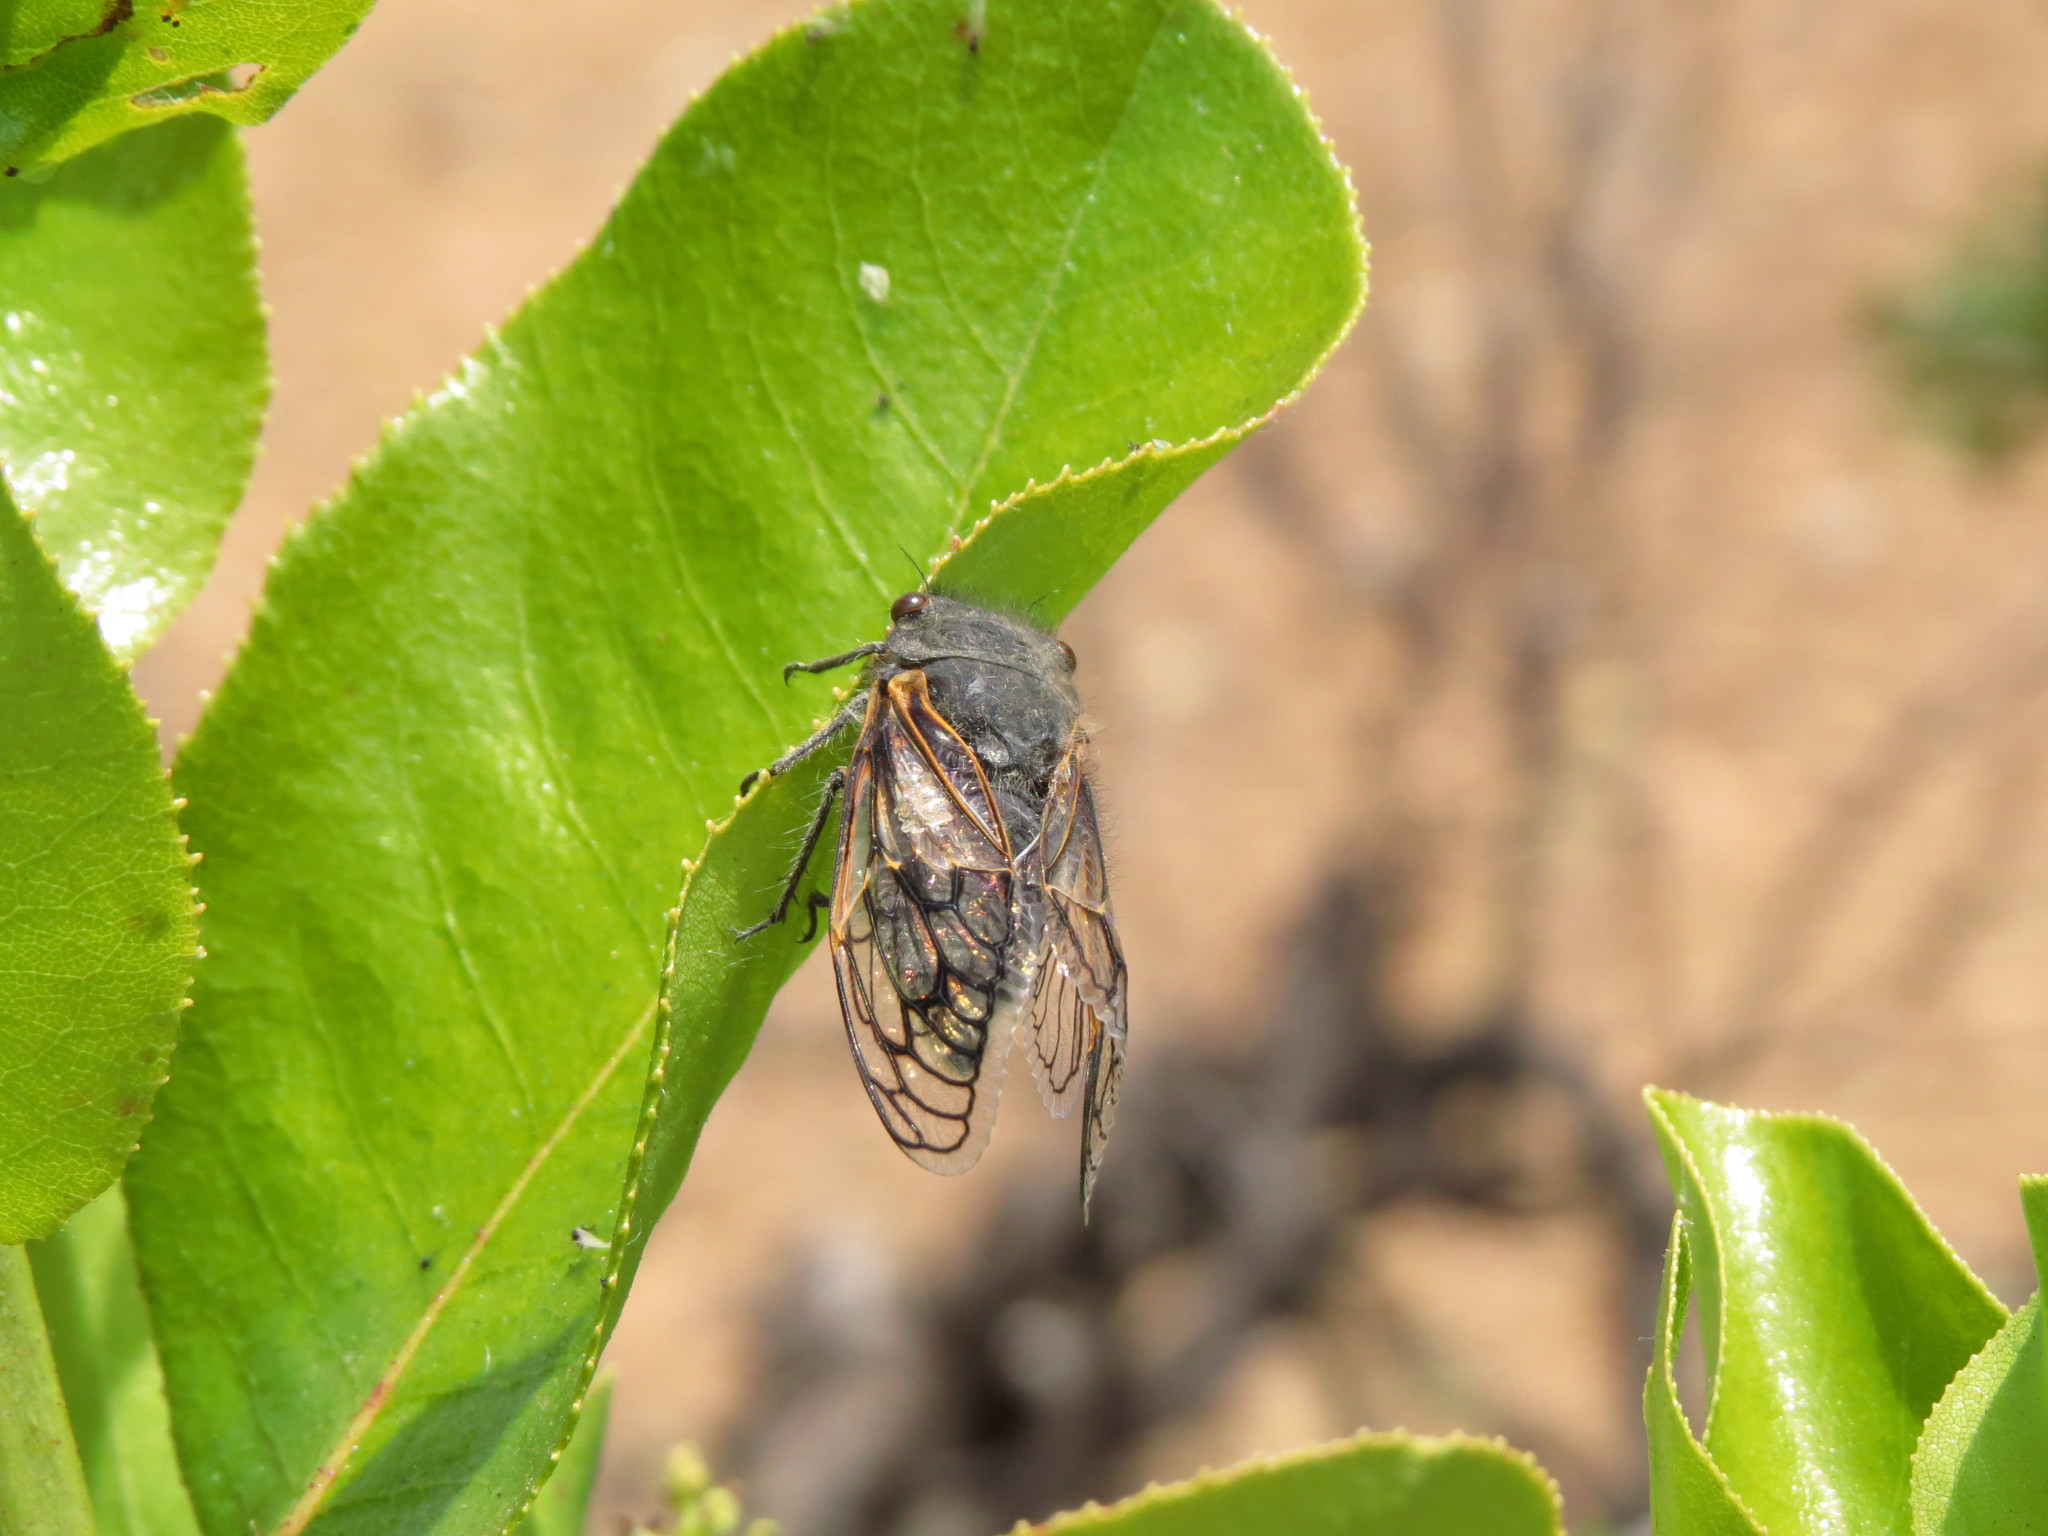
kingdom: Animalia
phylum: Arthropoda
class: Insecta
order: Hemiptera
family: Cicadidae
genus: Tettigades
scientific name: Tettigades chilensis
